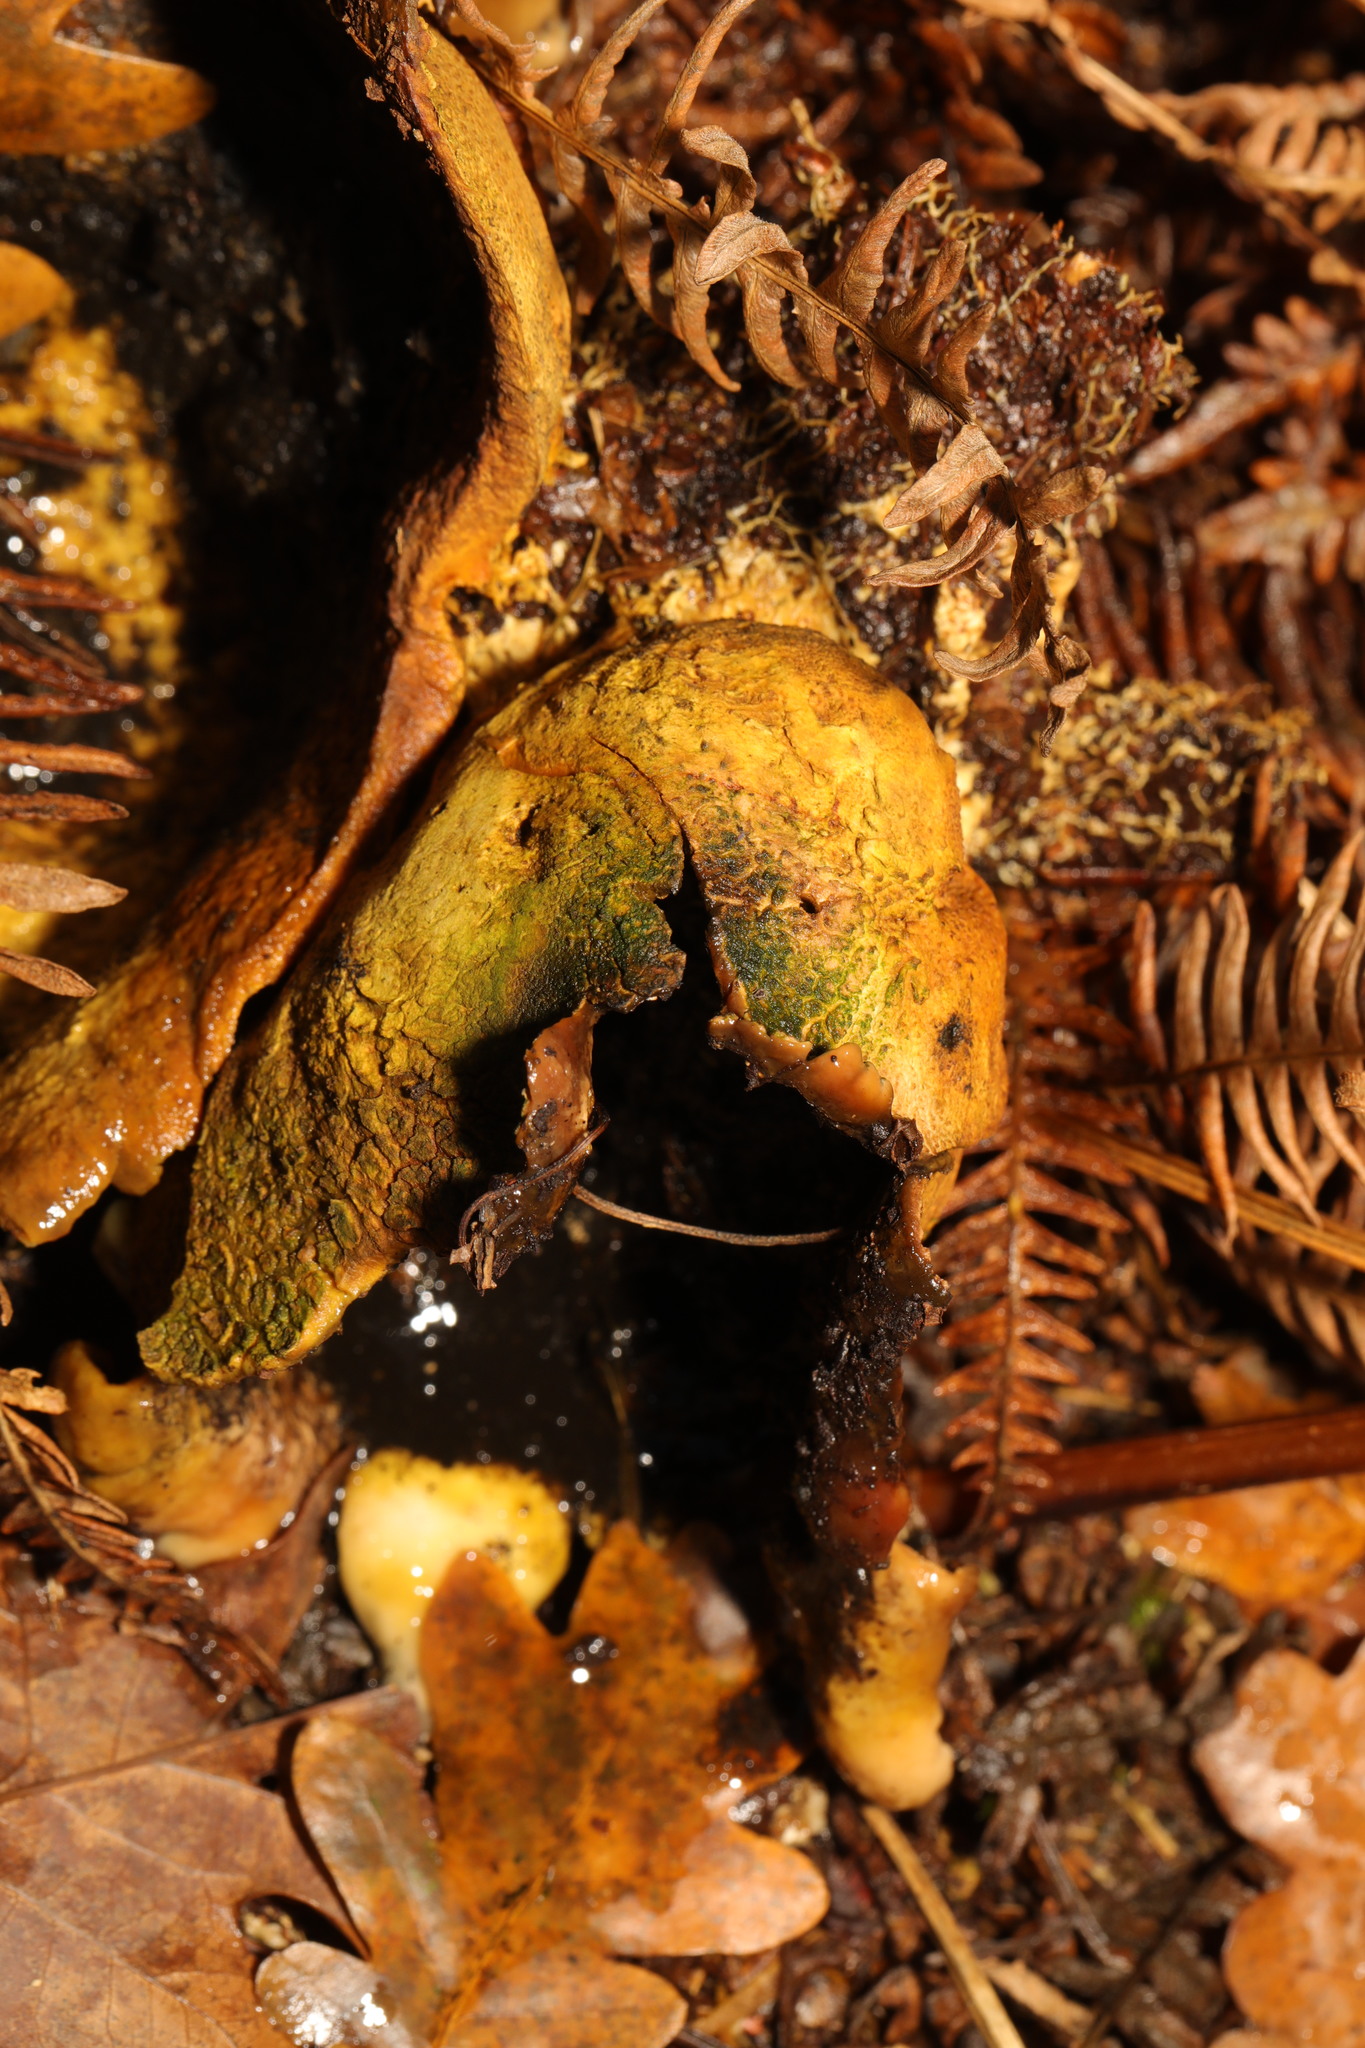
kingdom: Fungi
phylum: Basidiomycota
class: Agaricomycetes
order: Boletales
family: Sclerodermataceae
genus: Scleroderma
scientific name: Scleroderma citrinum
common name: Common earthball
